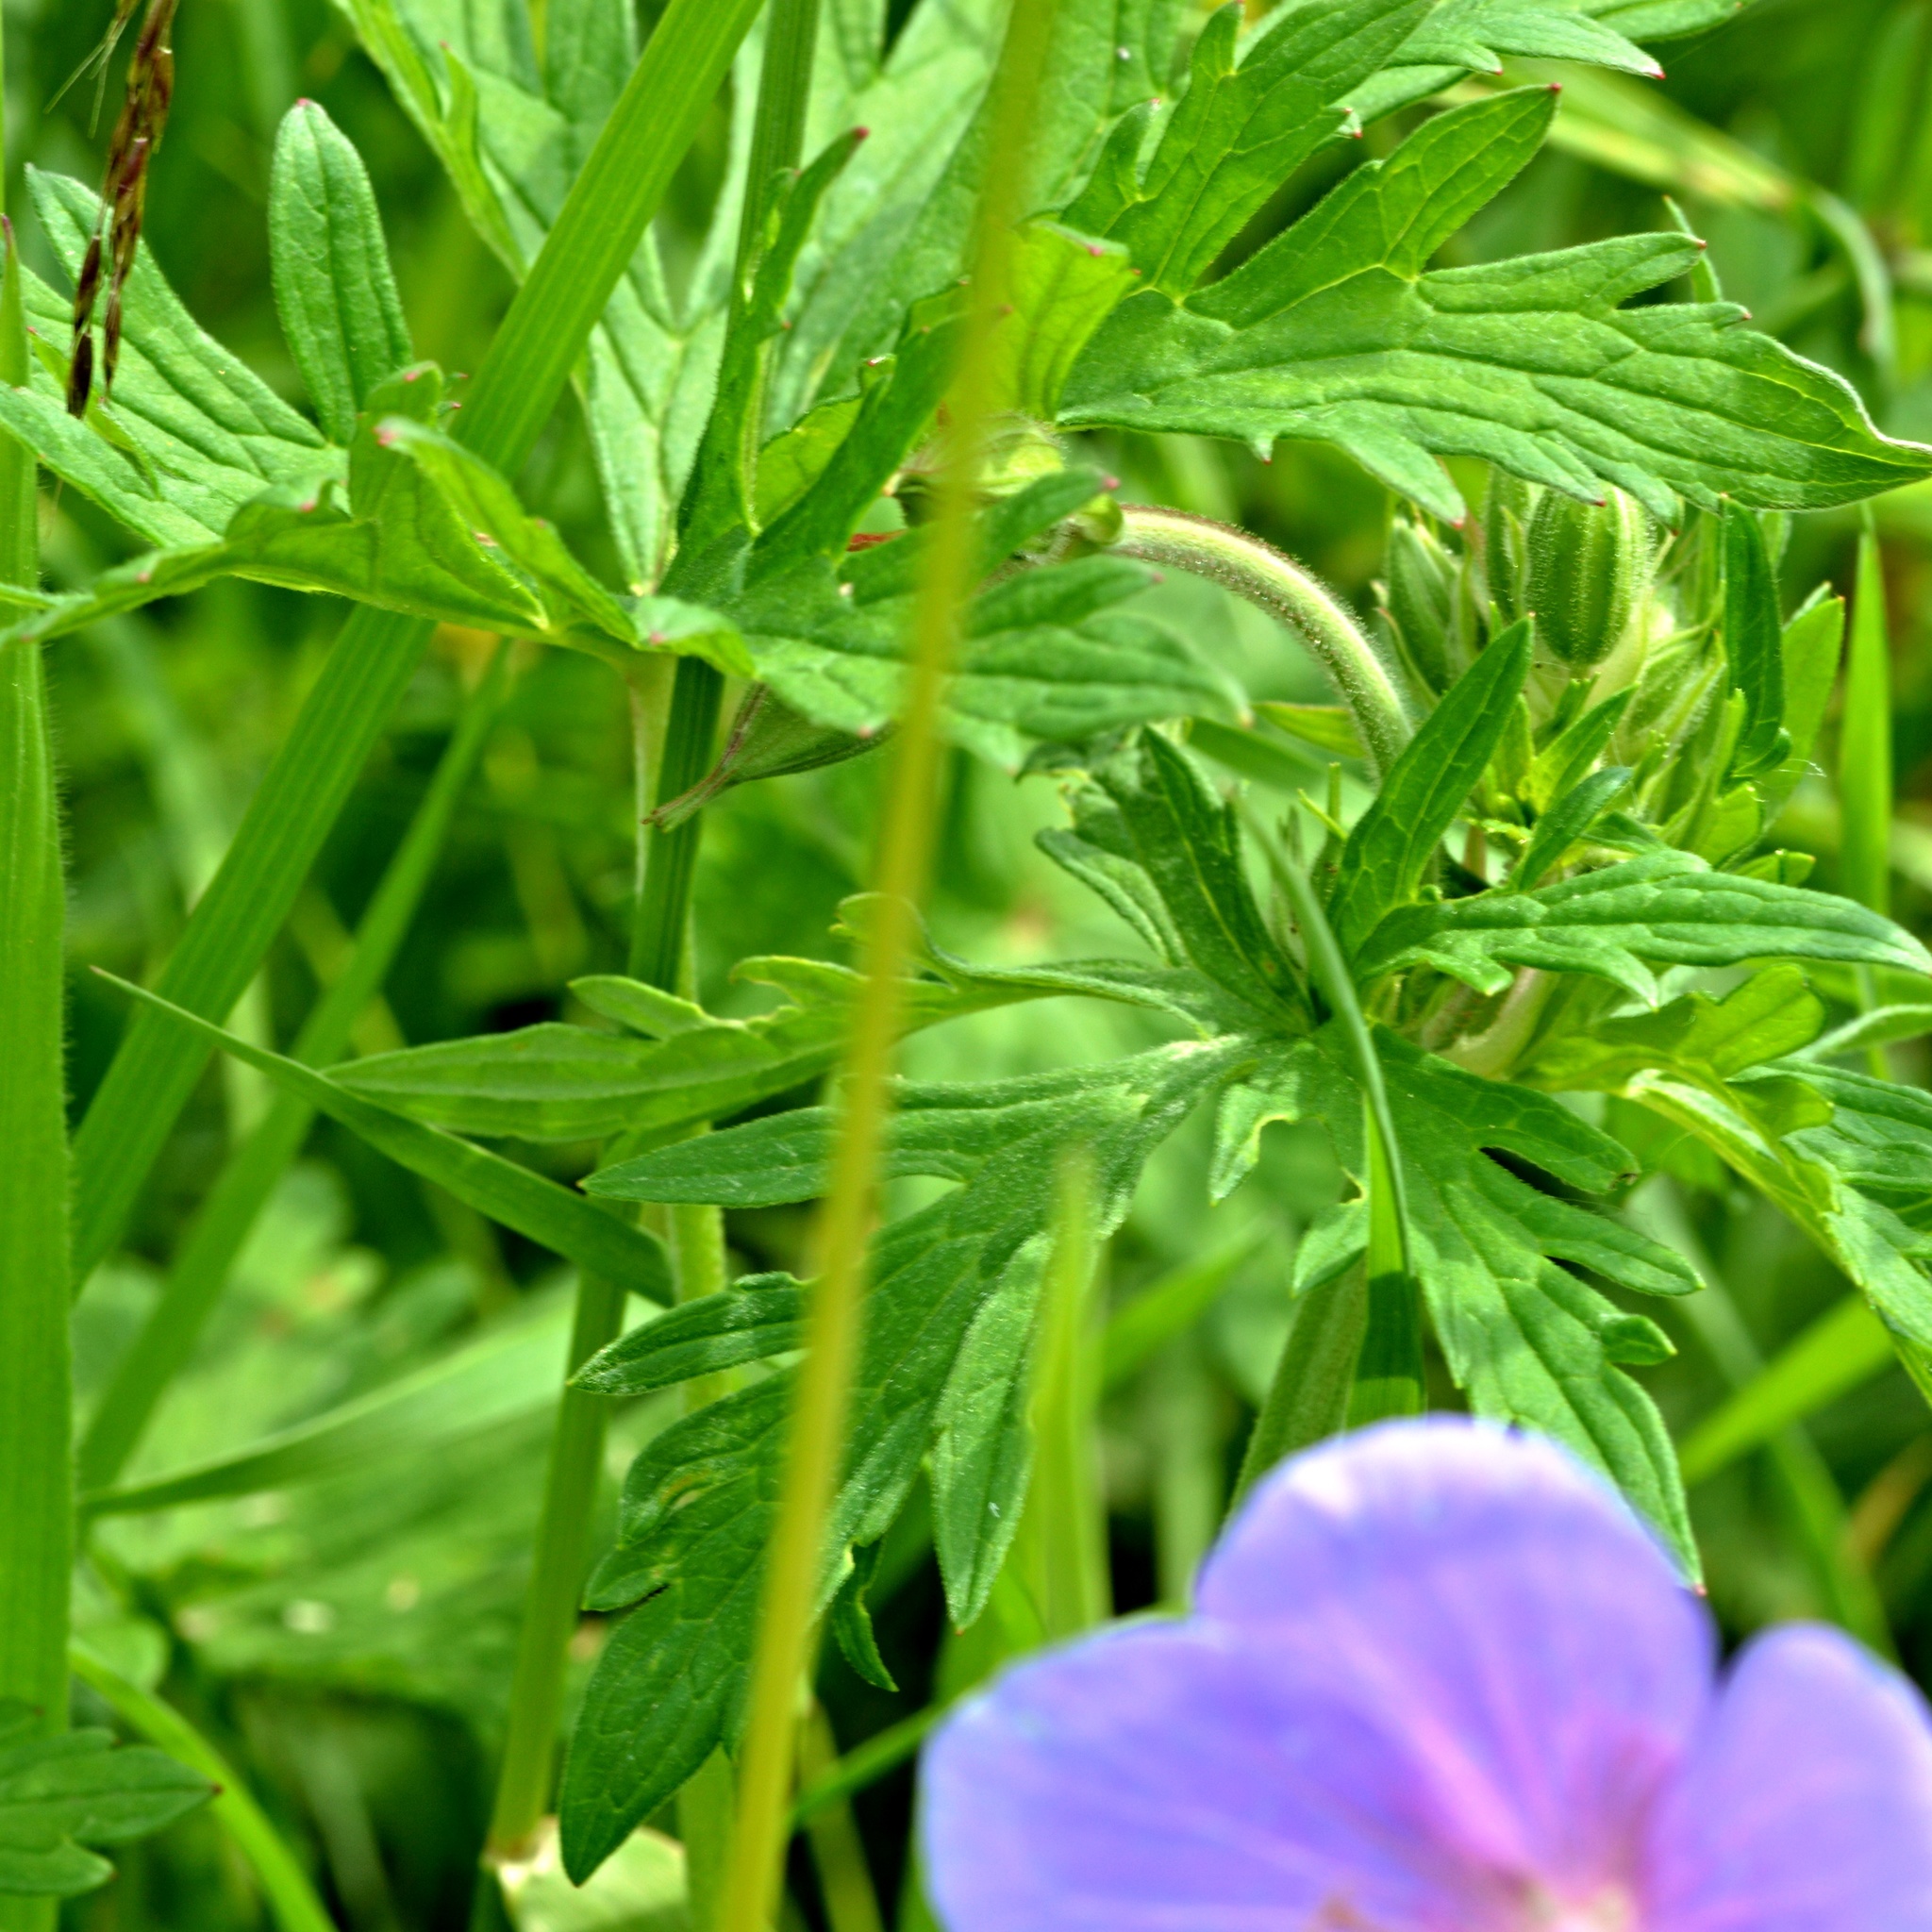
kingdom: Plantae
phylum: Tracheophyta
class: Magnoliopsida
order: Geraniales
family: Geraniaceae
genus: Geranium
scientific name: Geranium pratense
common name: Meadow crane's-bill
